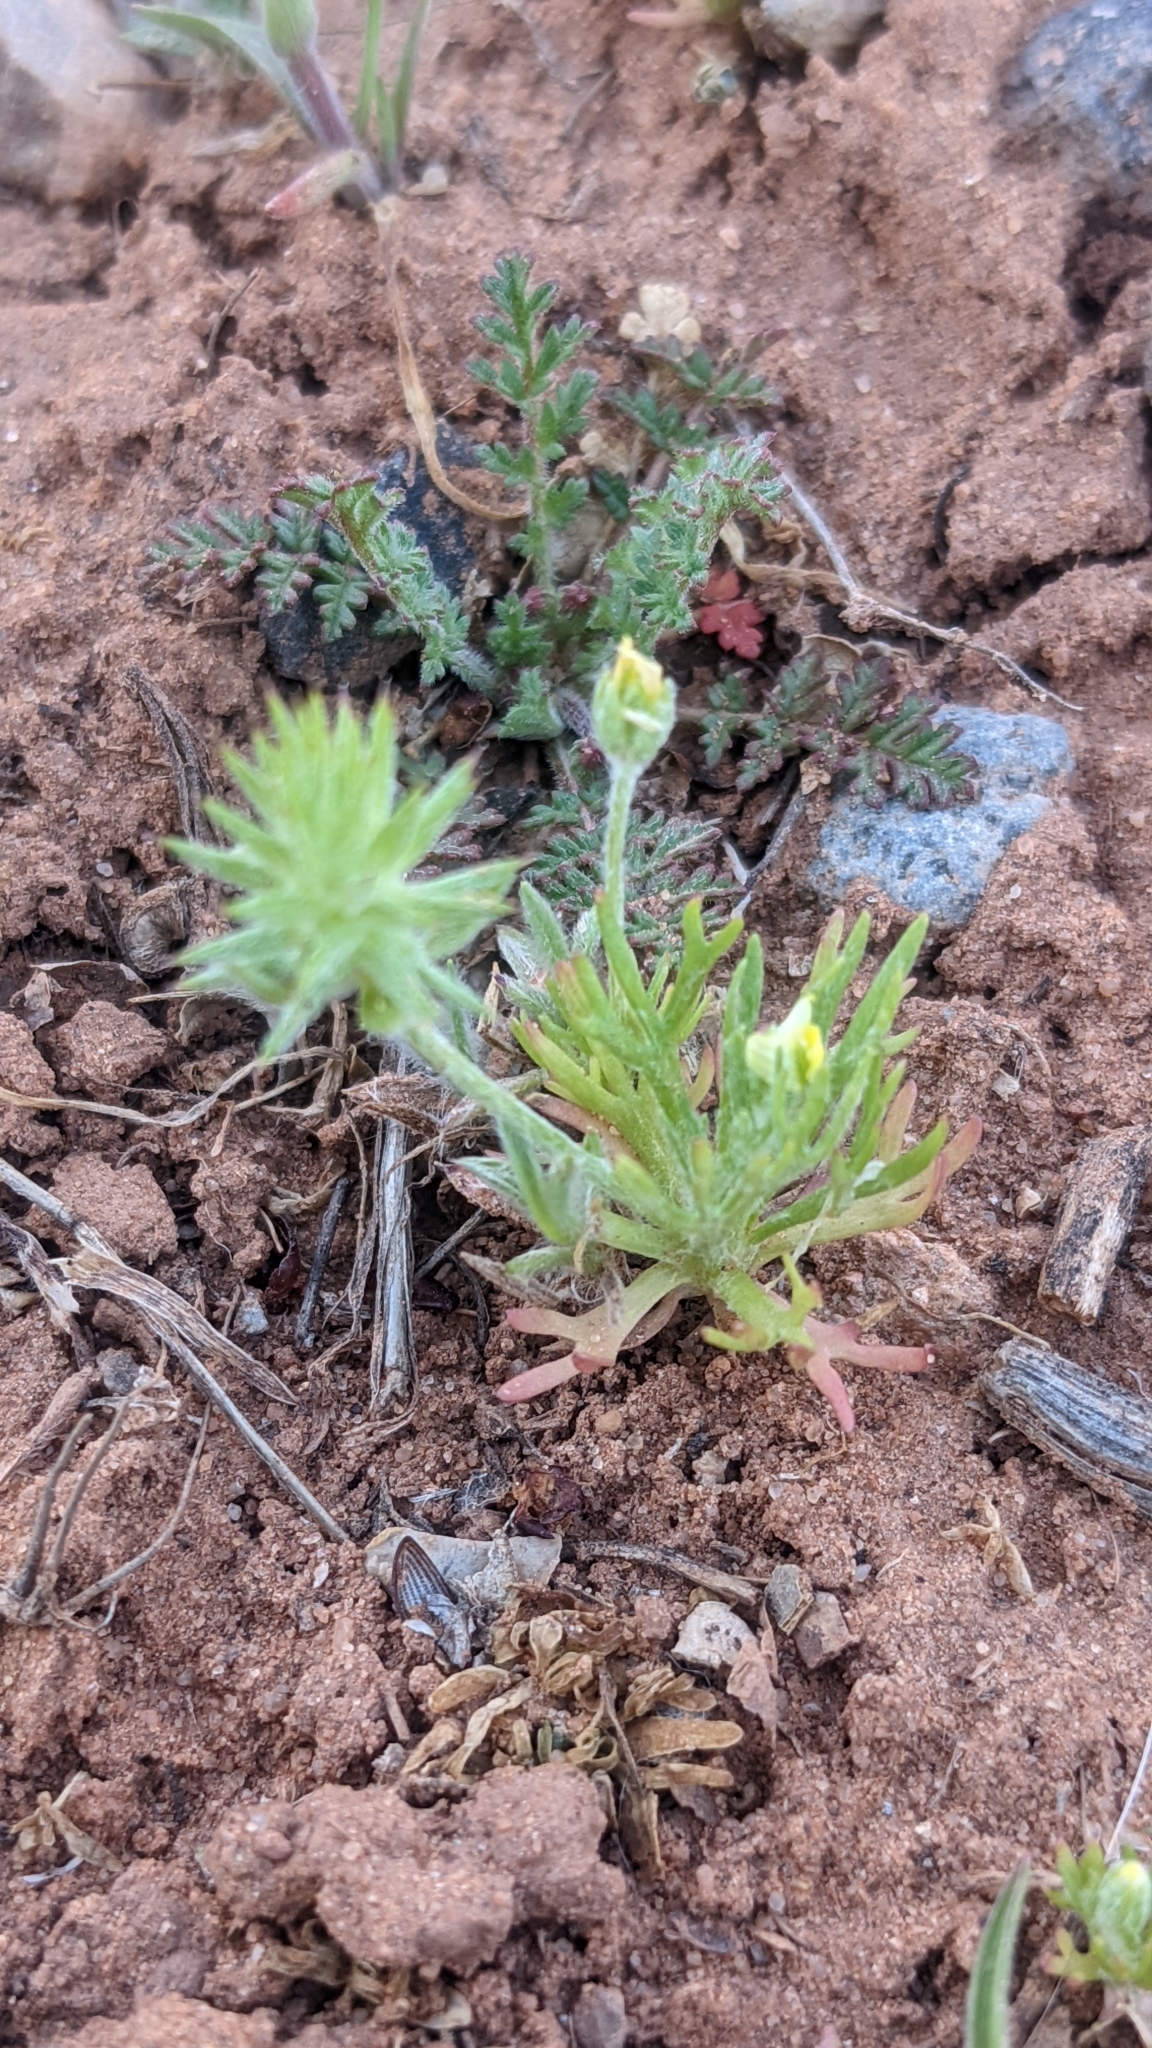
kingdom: Plantae
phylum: Tracheophyta
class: Magnoliopsida
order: Ranunculales
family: Ranunculaceae
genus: Ceratocephala
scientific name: Ceratocephala orthoceras
